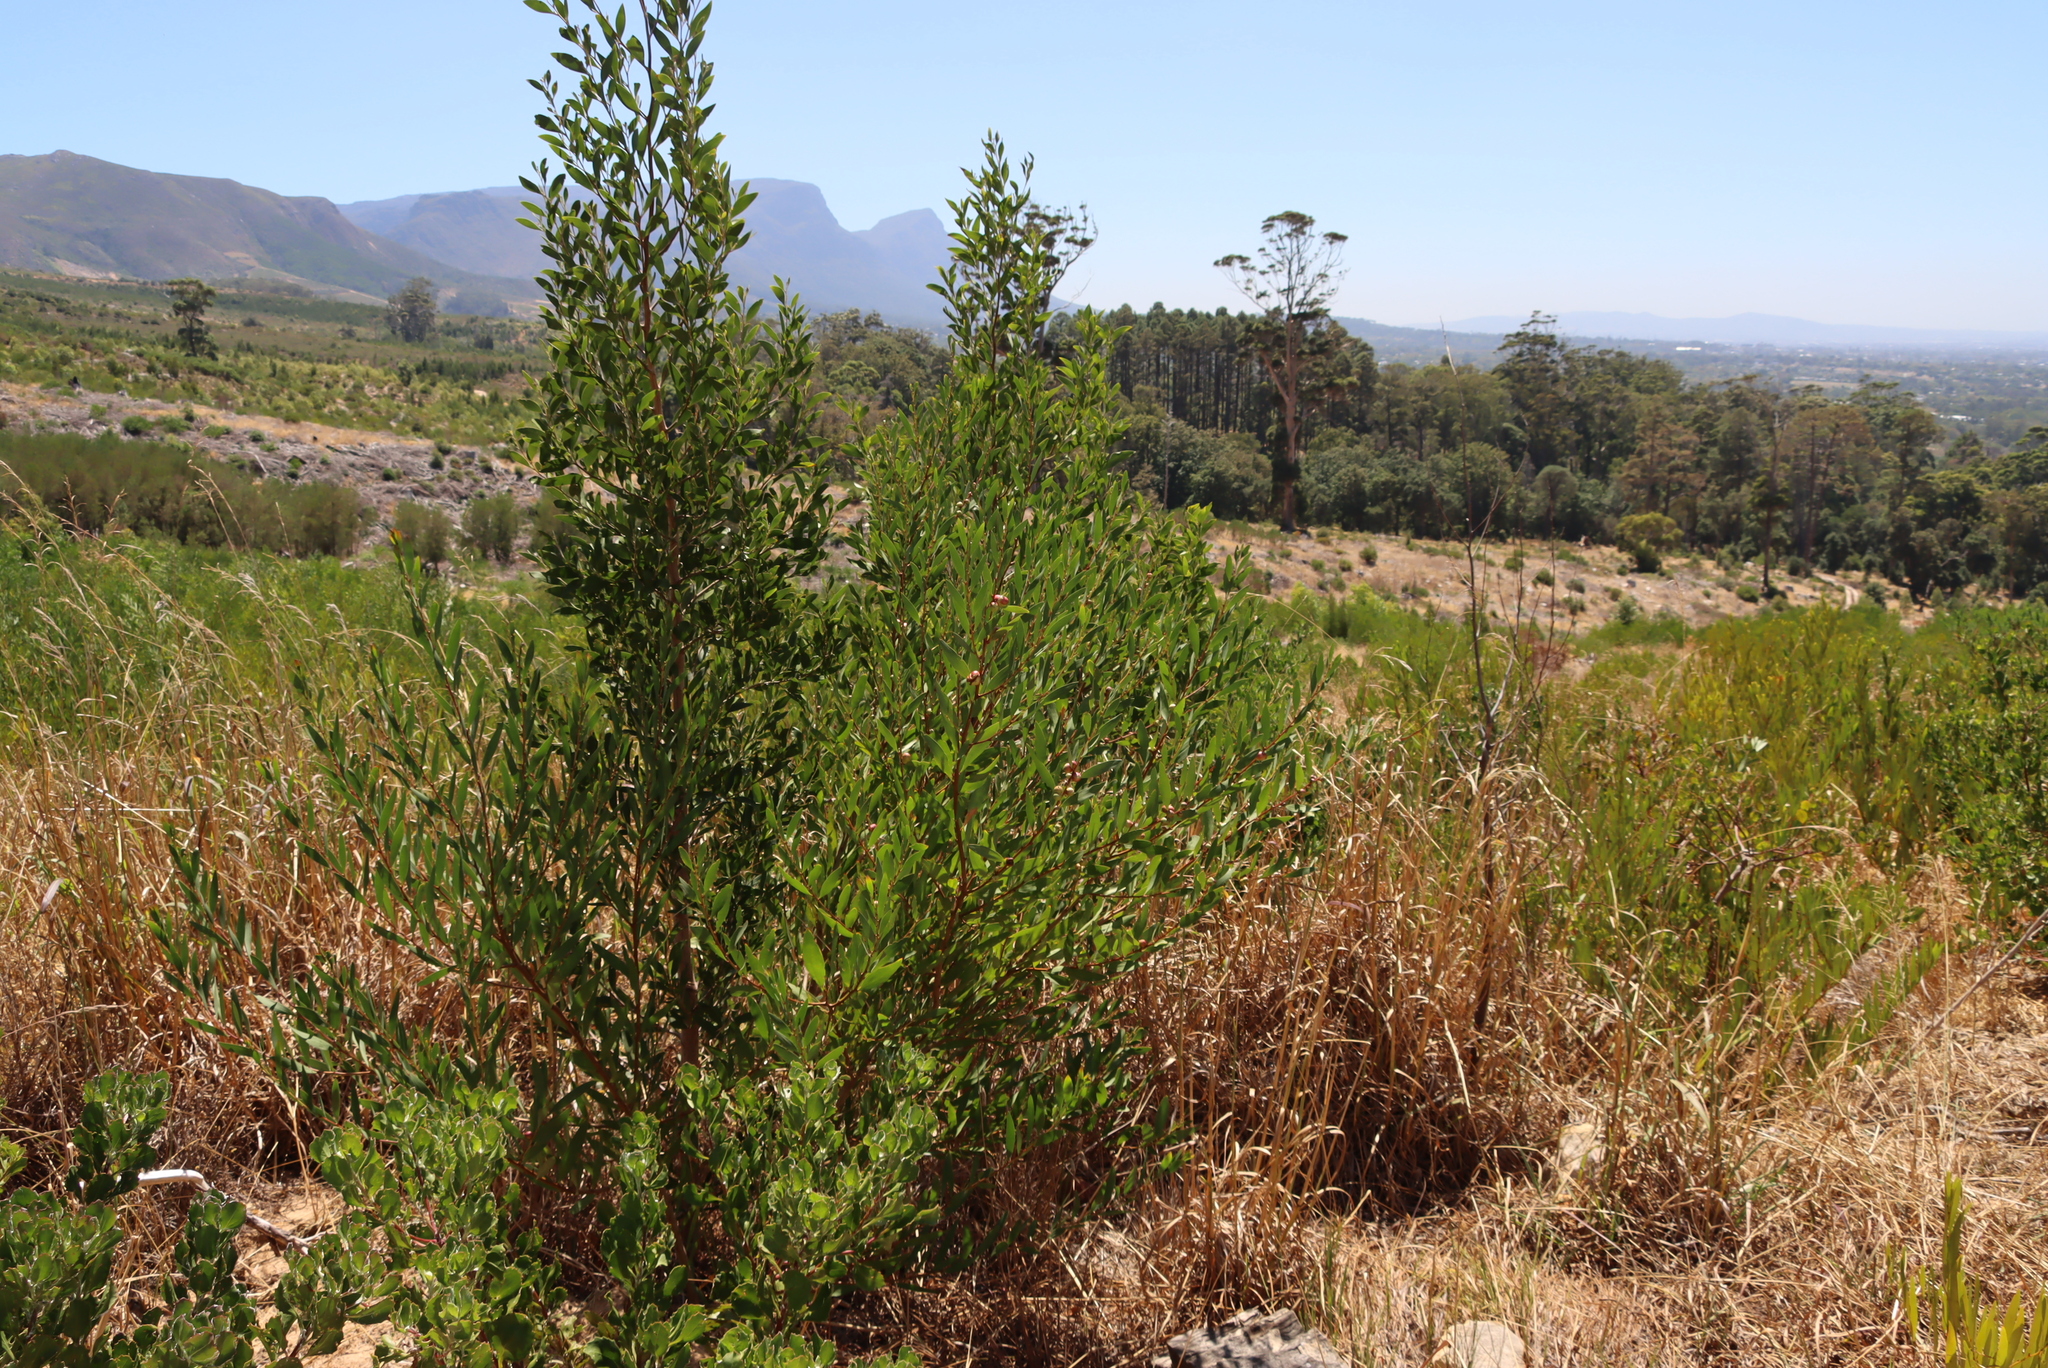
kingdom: Plantae
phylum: Tracheophyta
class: Magnoliopsida
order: Fabales
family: Fabaceae
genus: Acacia
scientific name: Acacia melanoxylon
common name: Blackwood
